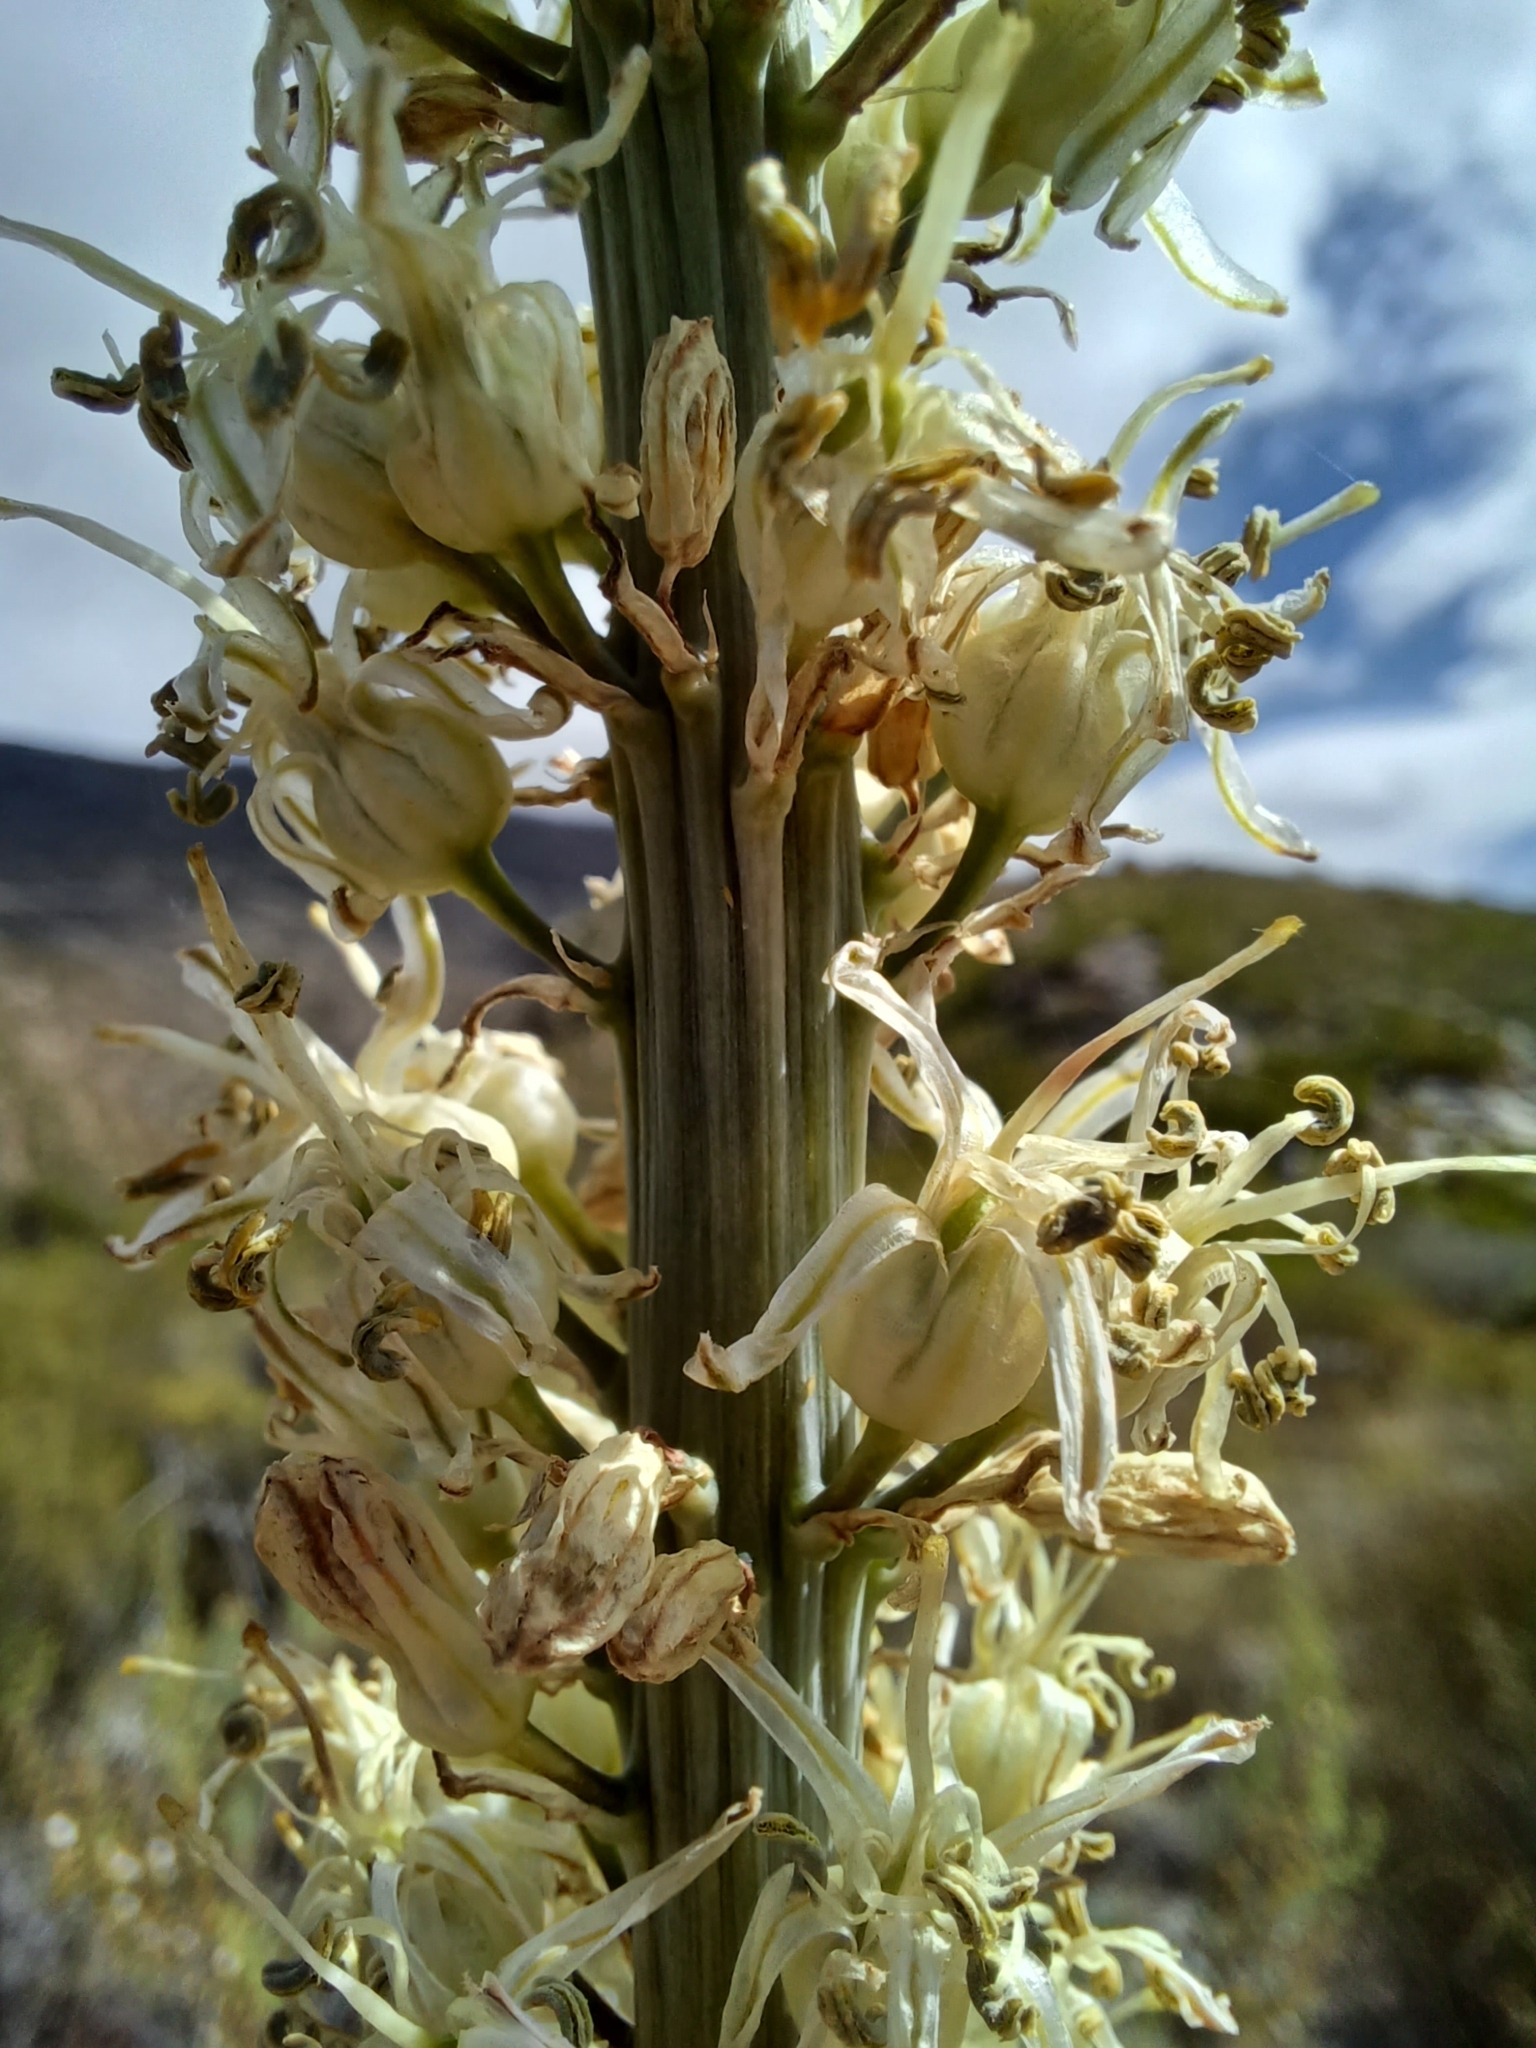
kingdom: Plantae
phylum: Tracheophyta
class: Liliopsida
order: Asparagales
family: Asparagaceae
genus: Drimia
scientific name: Drimia capensis
